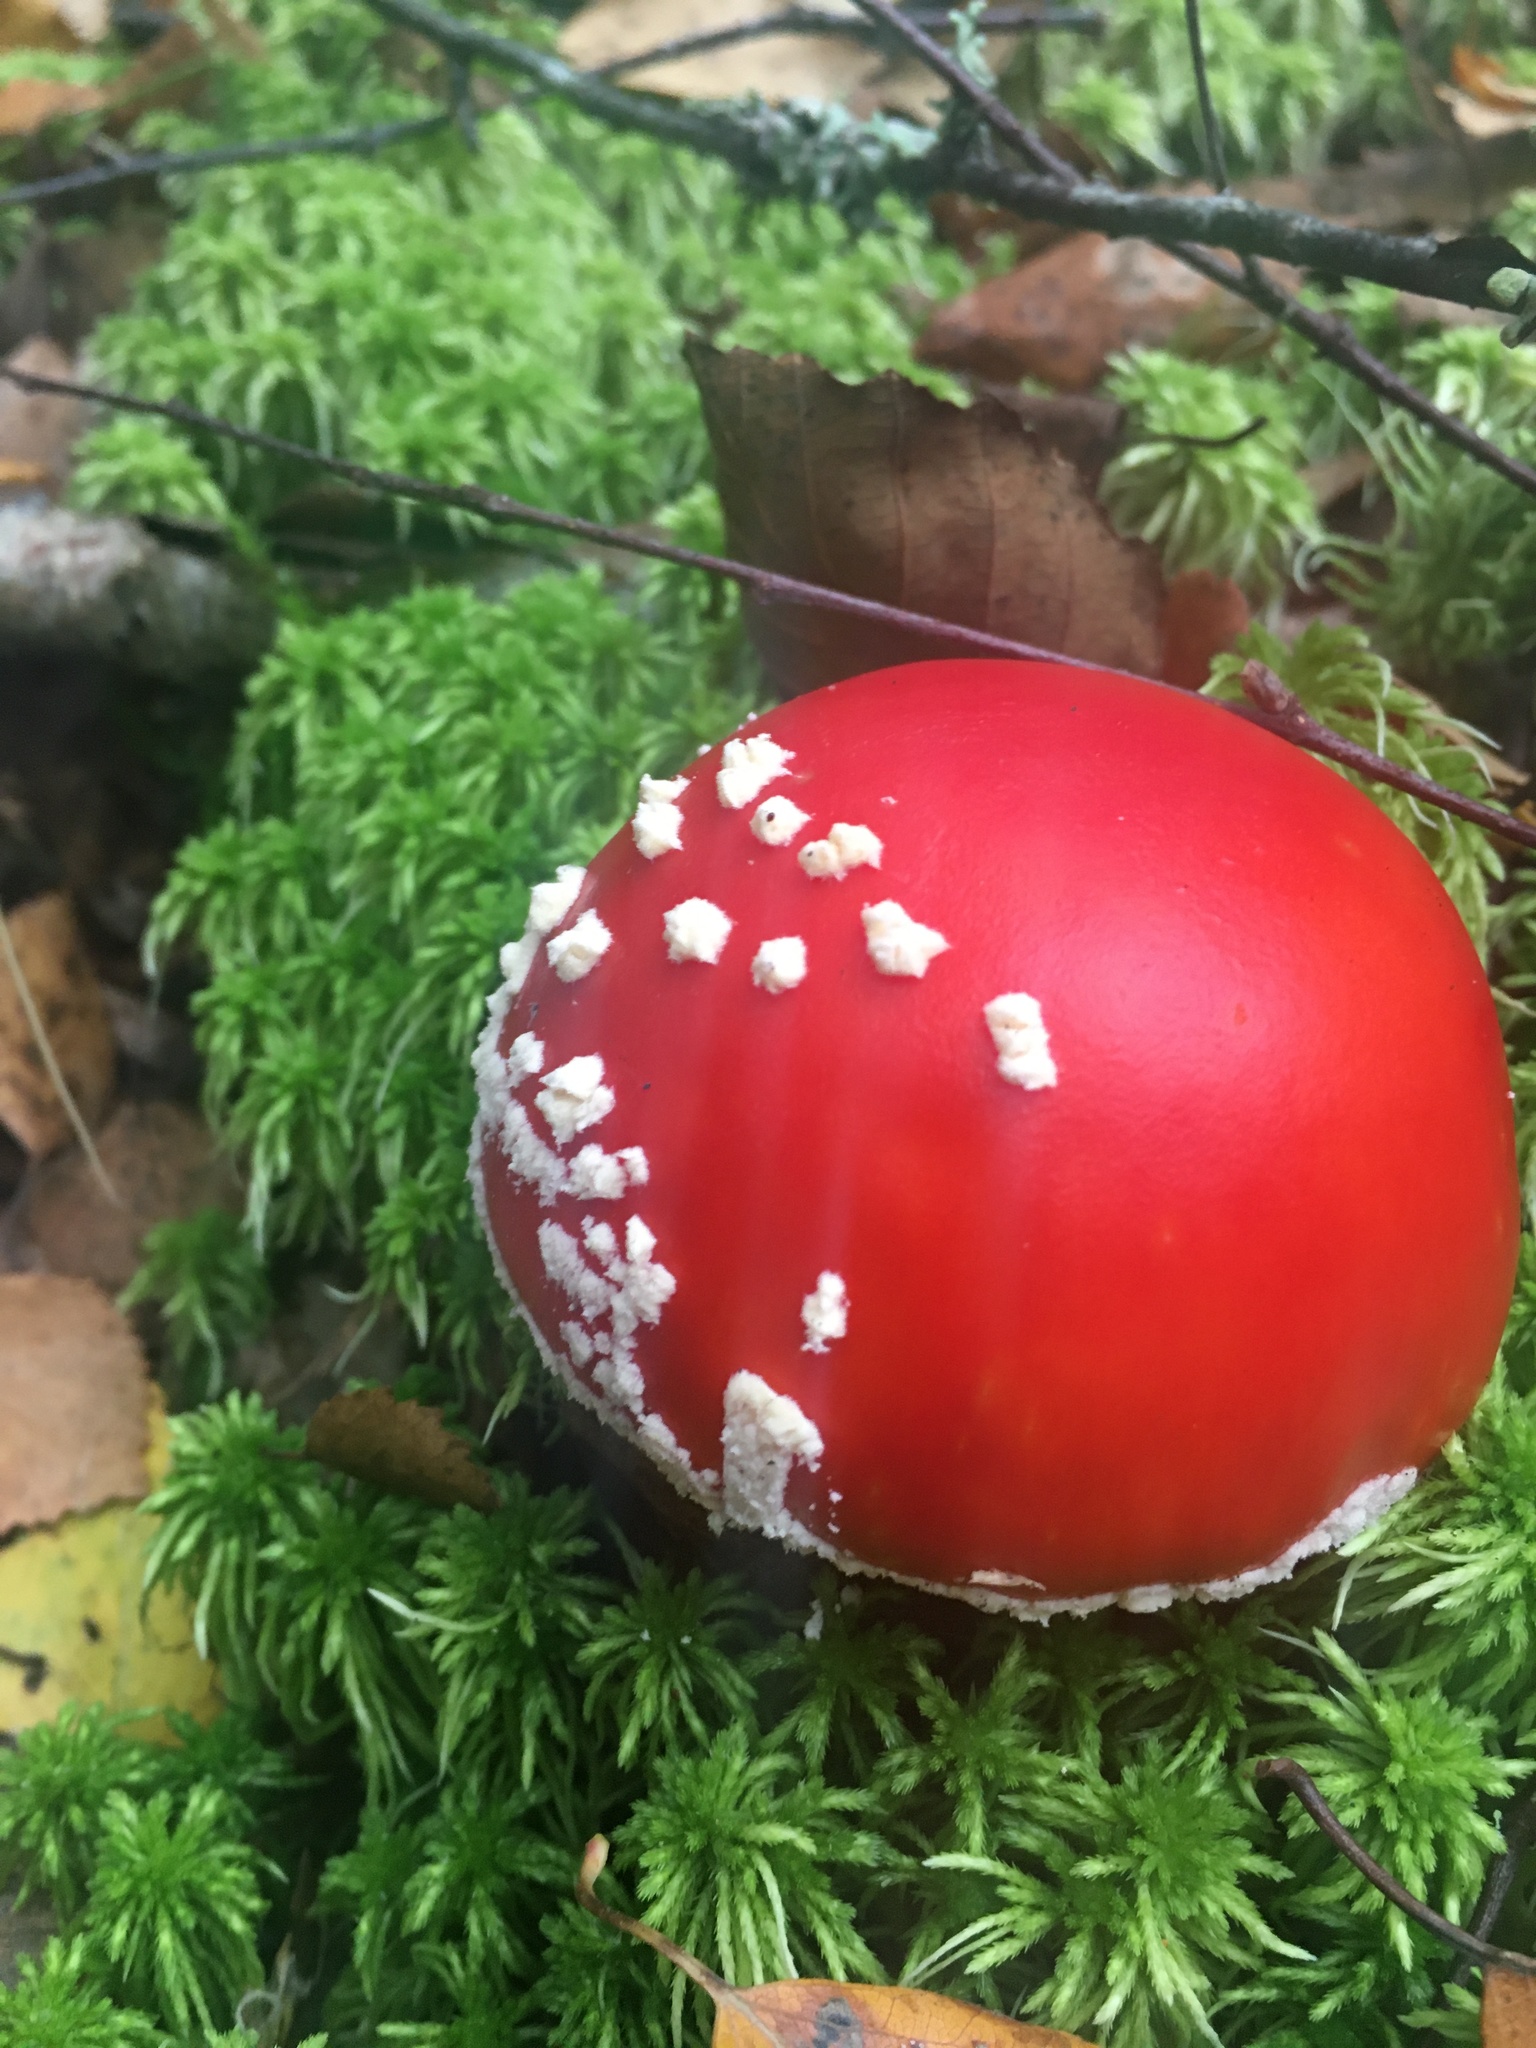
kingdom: Fungi
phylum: Basidiomycota
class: Agaricomycetes
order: Agaricales
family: Amanitaceae
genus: Amanita
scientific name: Amanita muscaria
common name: Fly agaric
